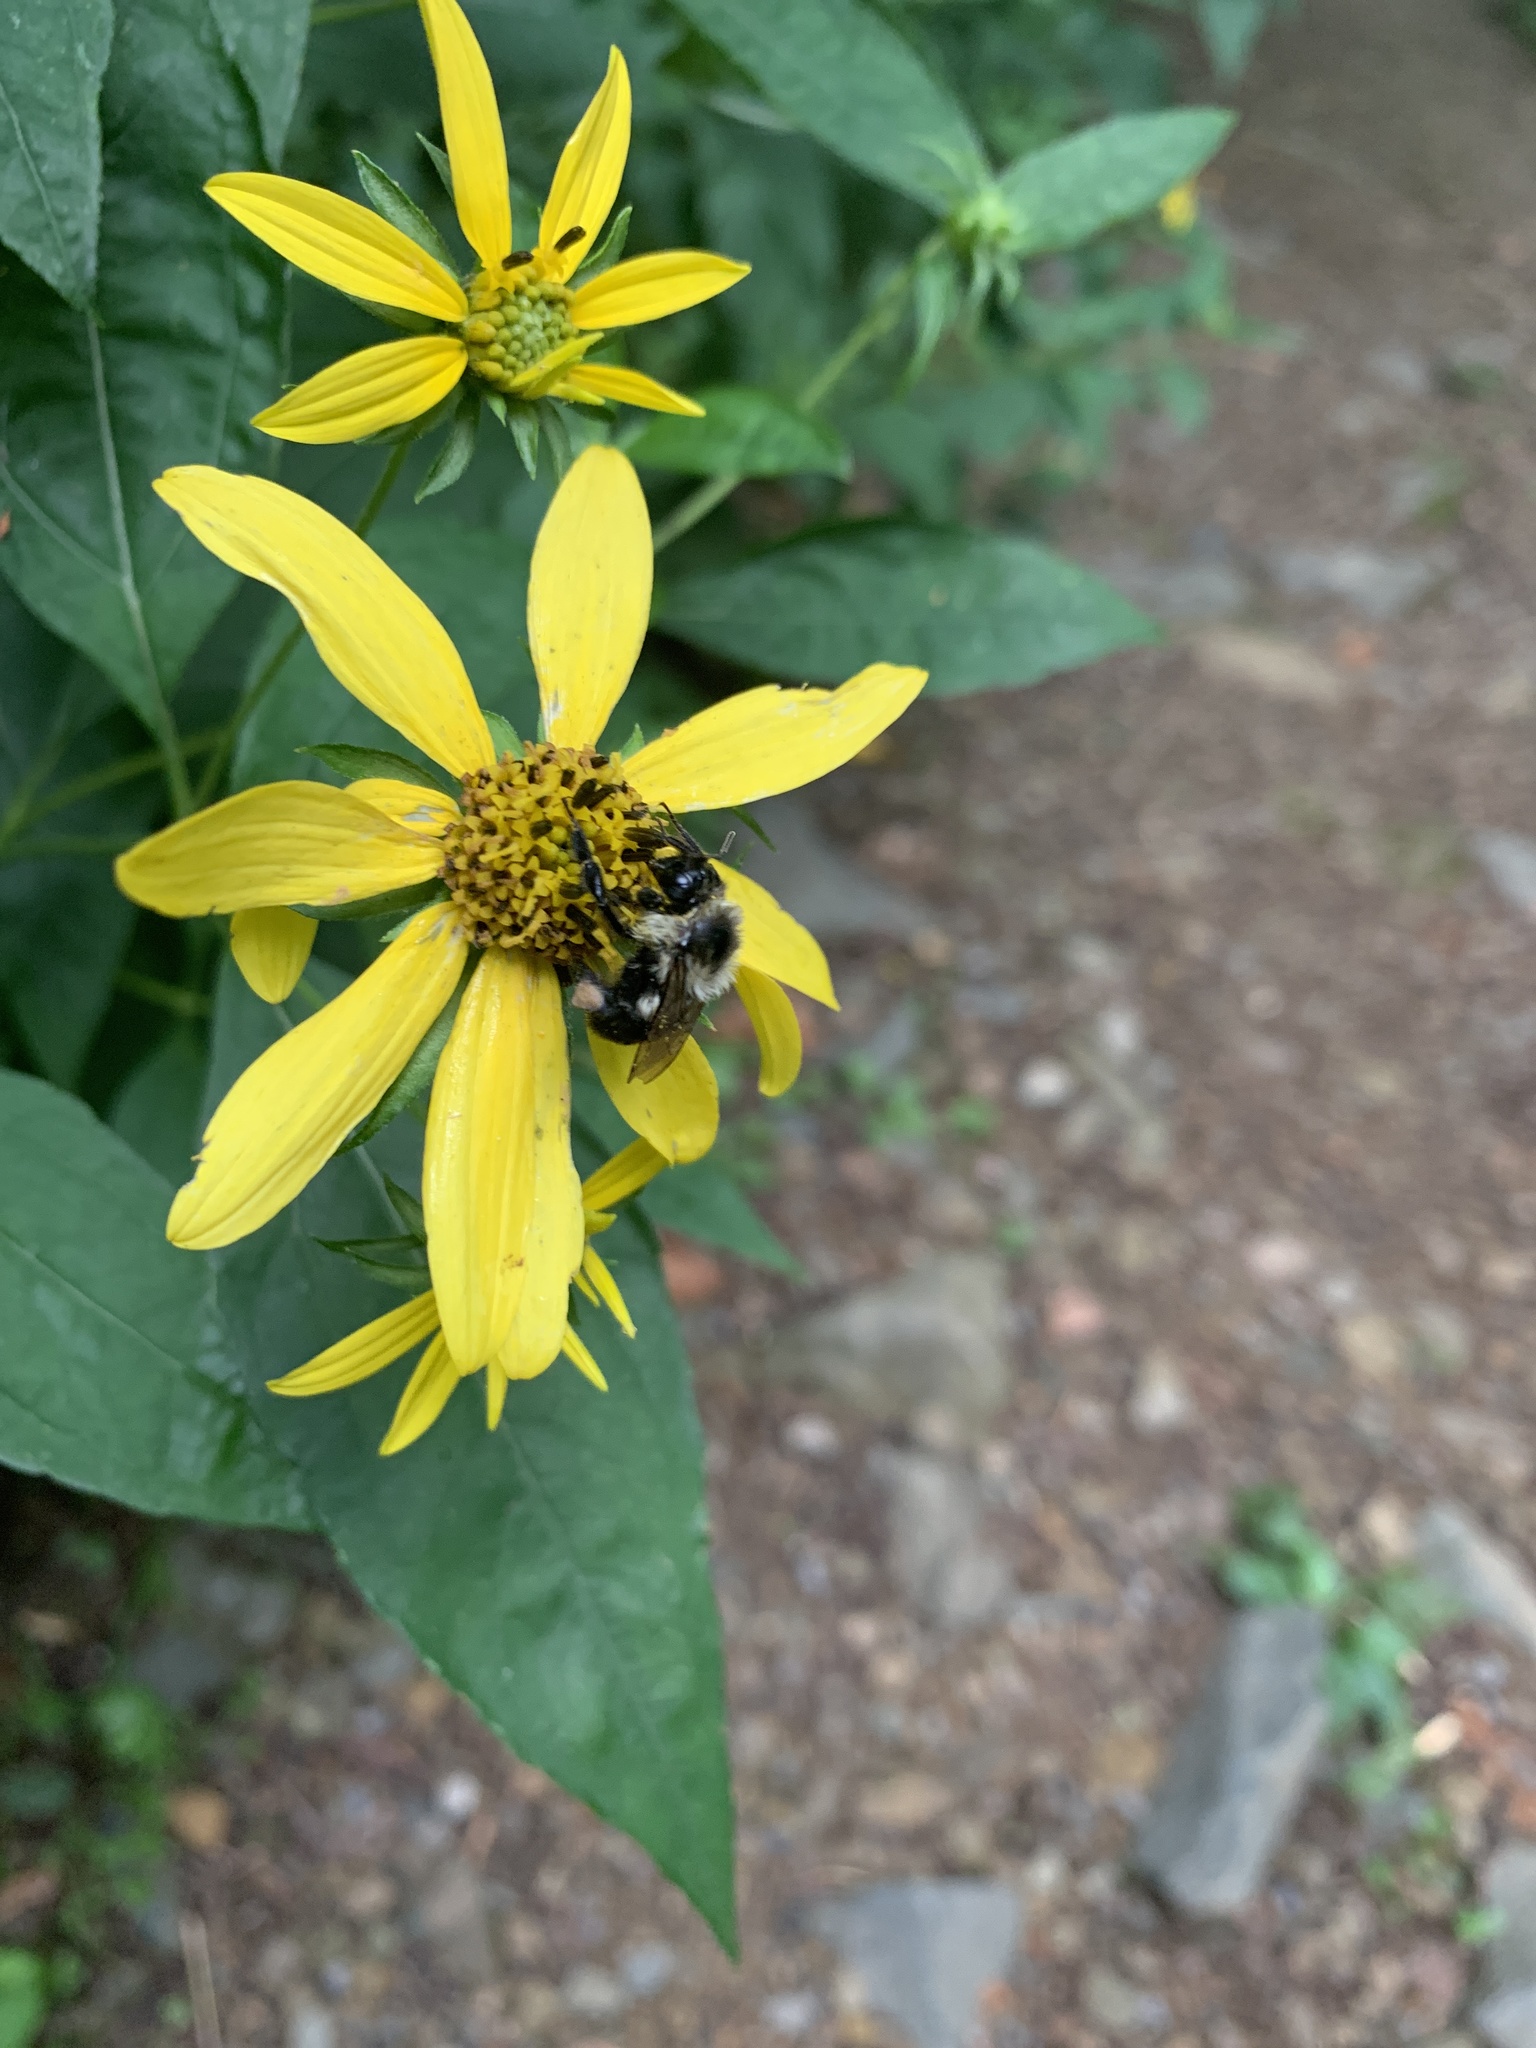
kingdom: Animalia
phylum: Arthropoda
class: Insecta
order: Hymenoptera
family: Apidae
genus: Bombus
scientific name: Bombus impatiens
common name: Common eastern bumble bee
